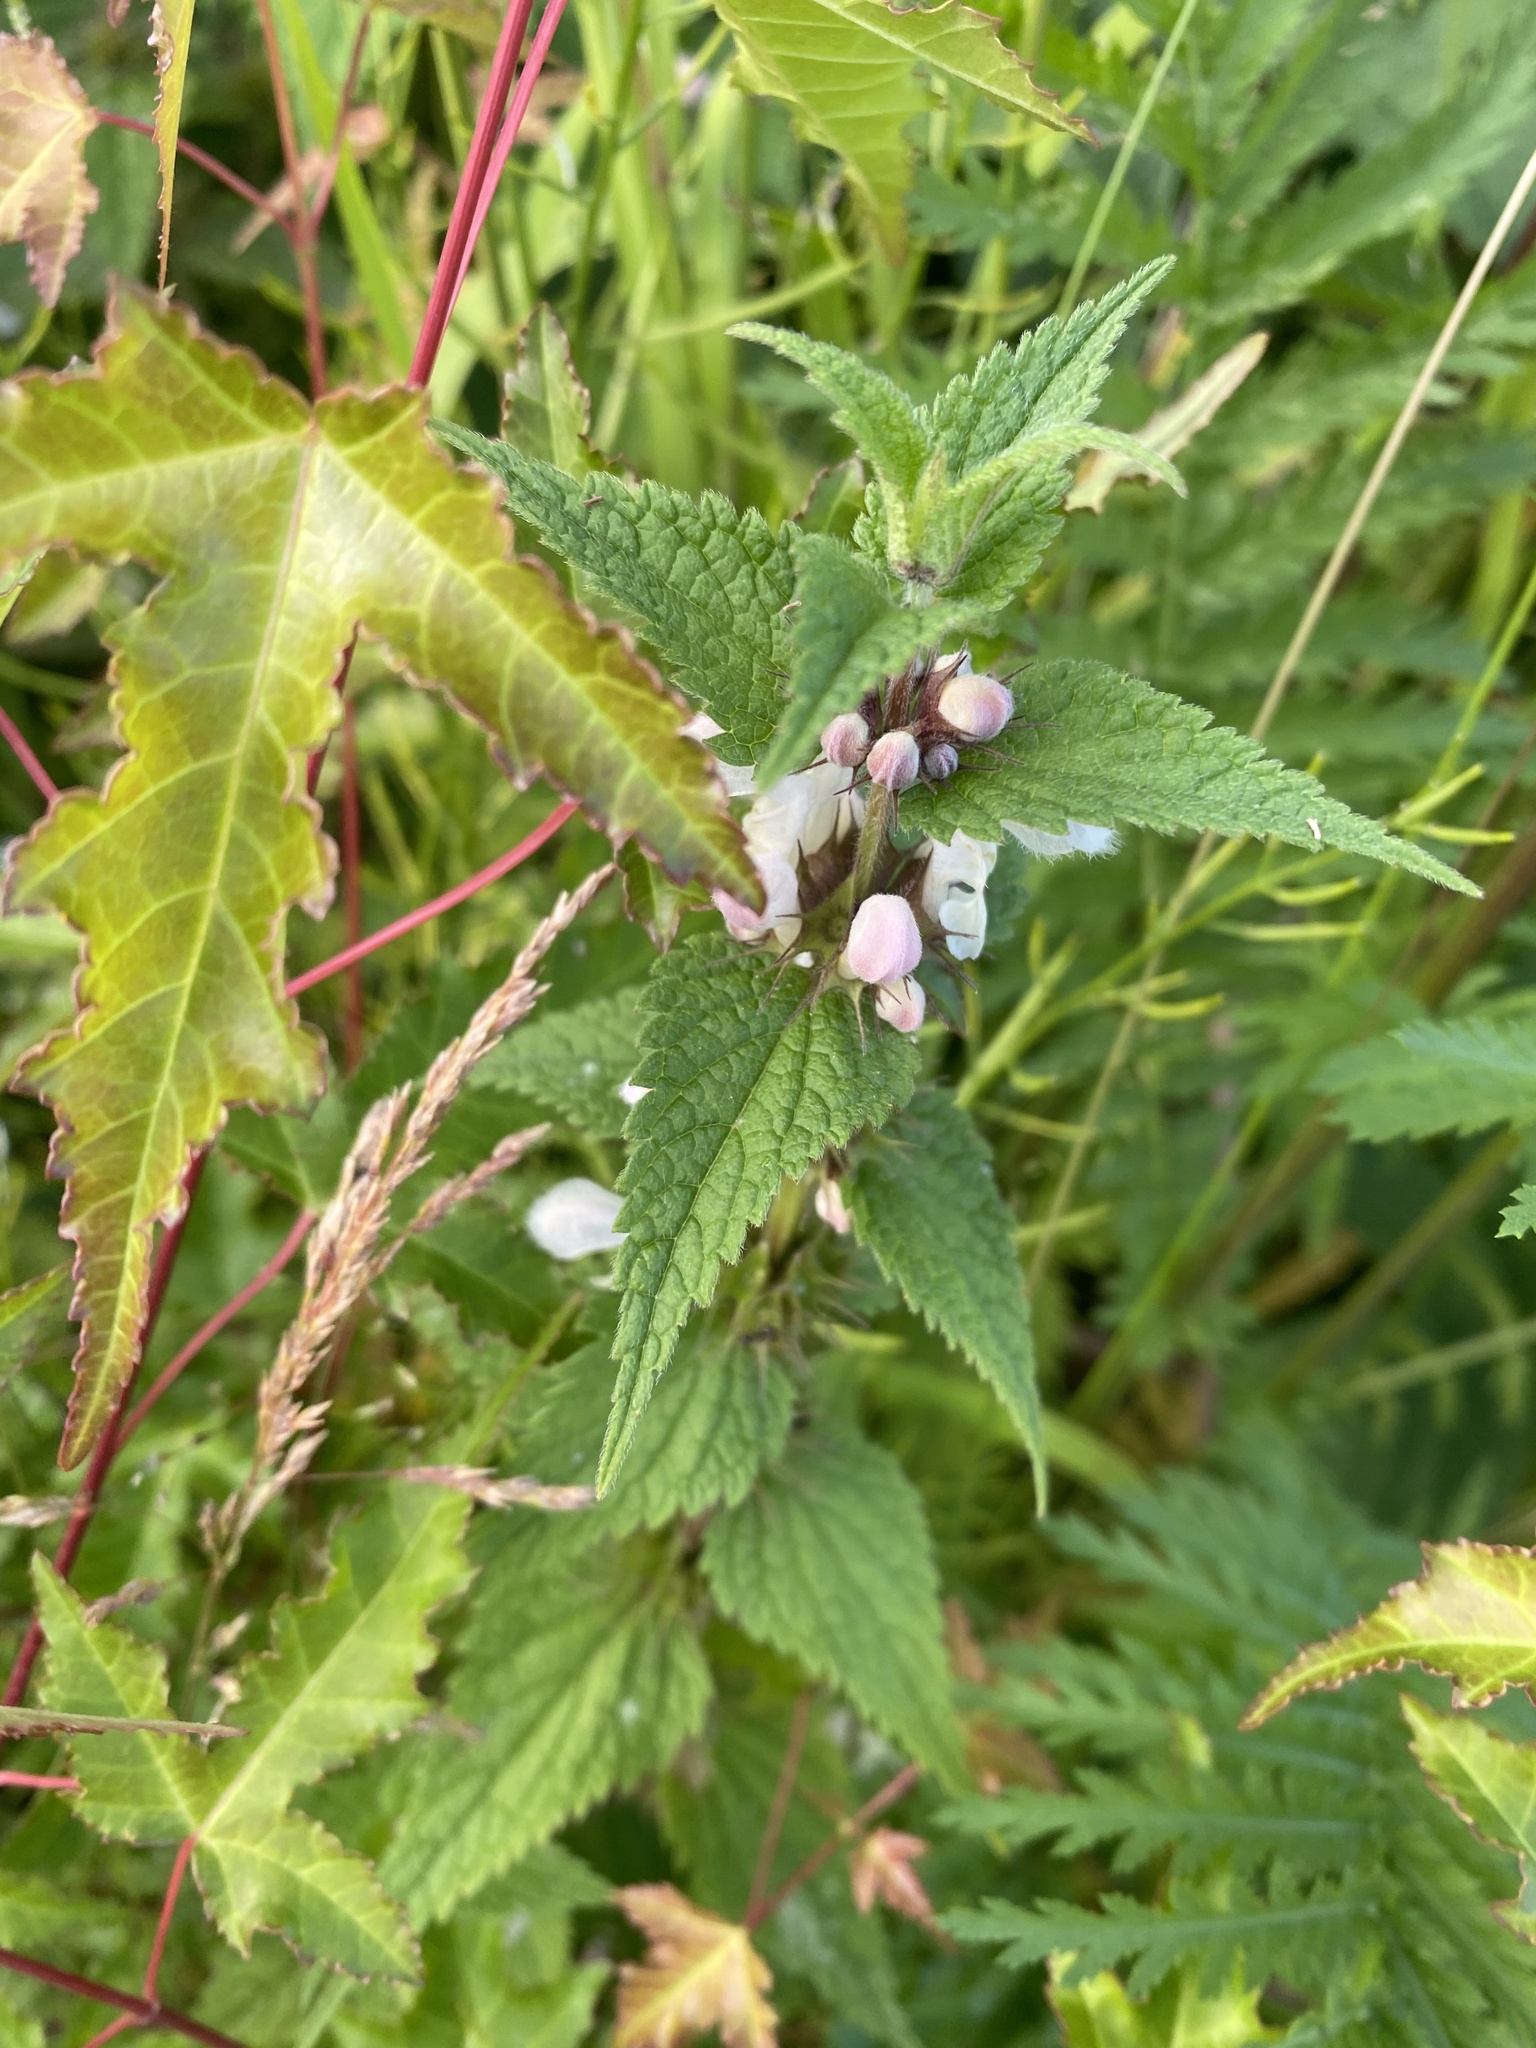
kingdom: Plantae
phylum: Tracheophyta
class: Magnoliopsida
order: Lamiales
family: Lamiaceae
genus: Lamium
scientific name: Lamium album
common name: White dead-nettle
